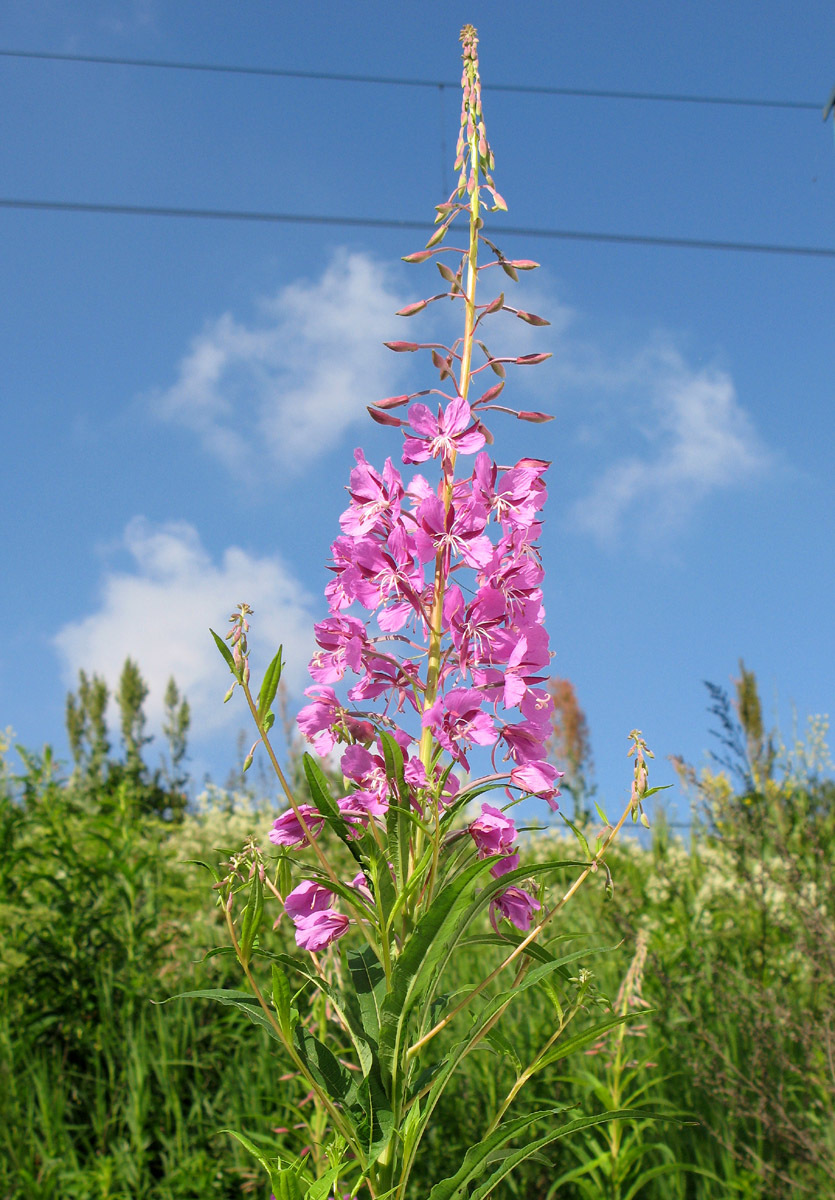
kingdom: Plantae
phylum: Tracheophyta
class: Magnoliopsida
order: Myrtales
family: Onagraceae
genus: Chamaenerion
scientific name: Chamaenerion angustifolium
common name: Fireweed
